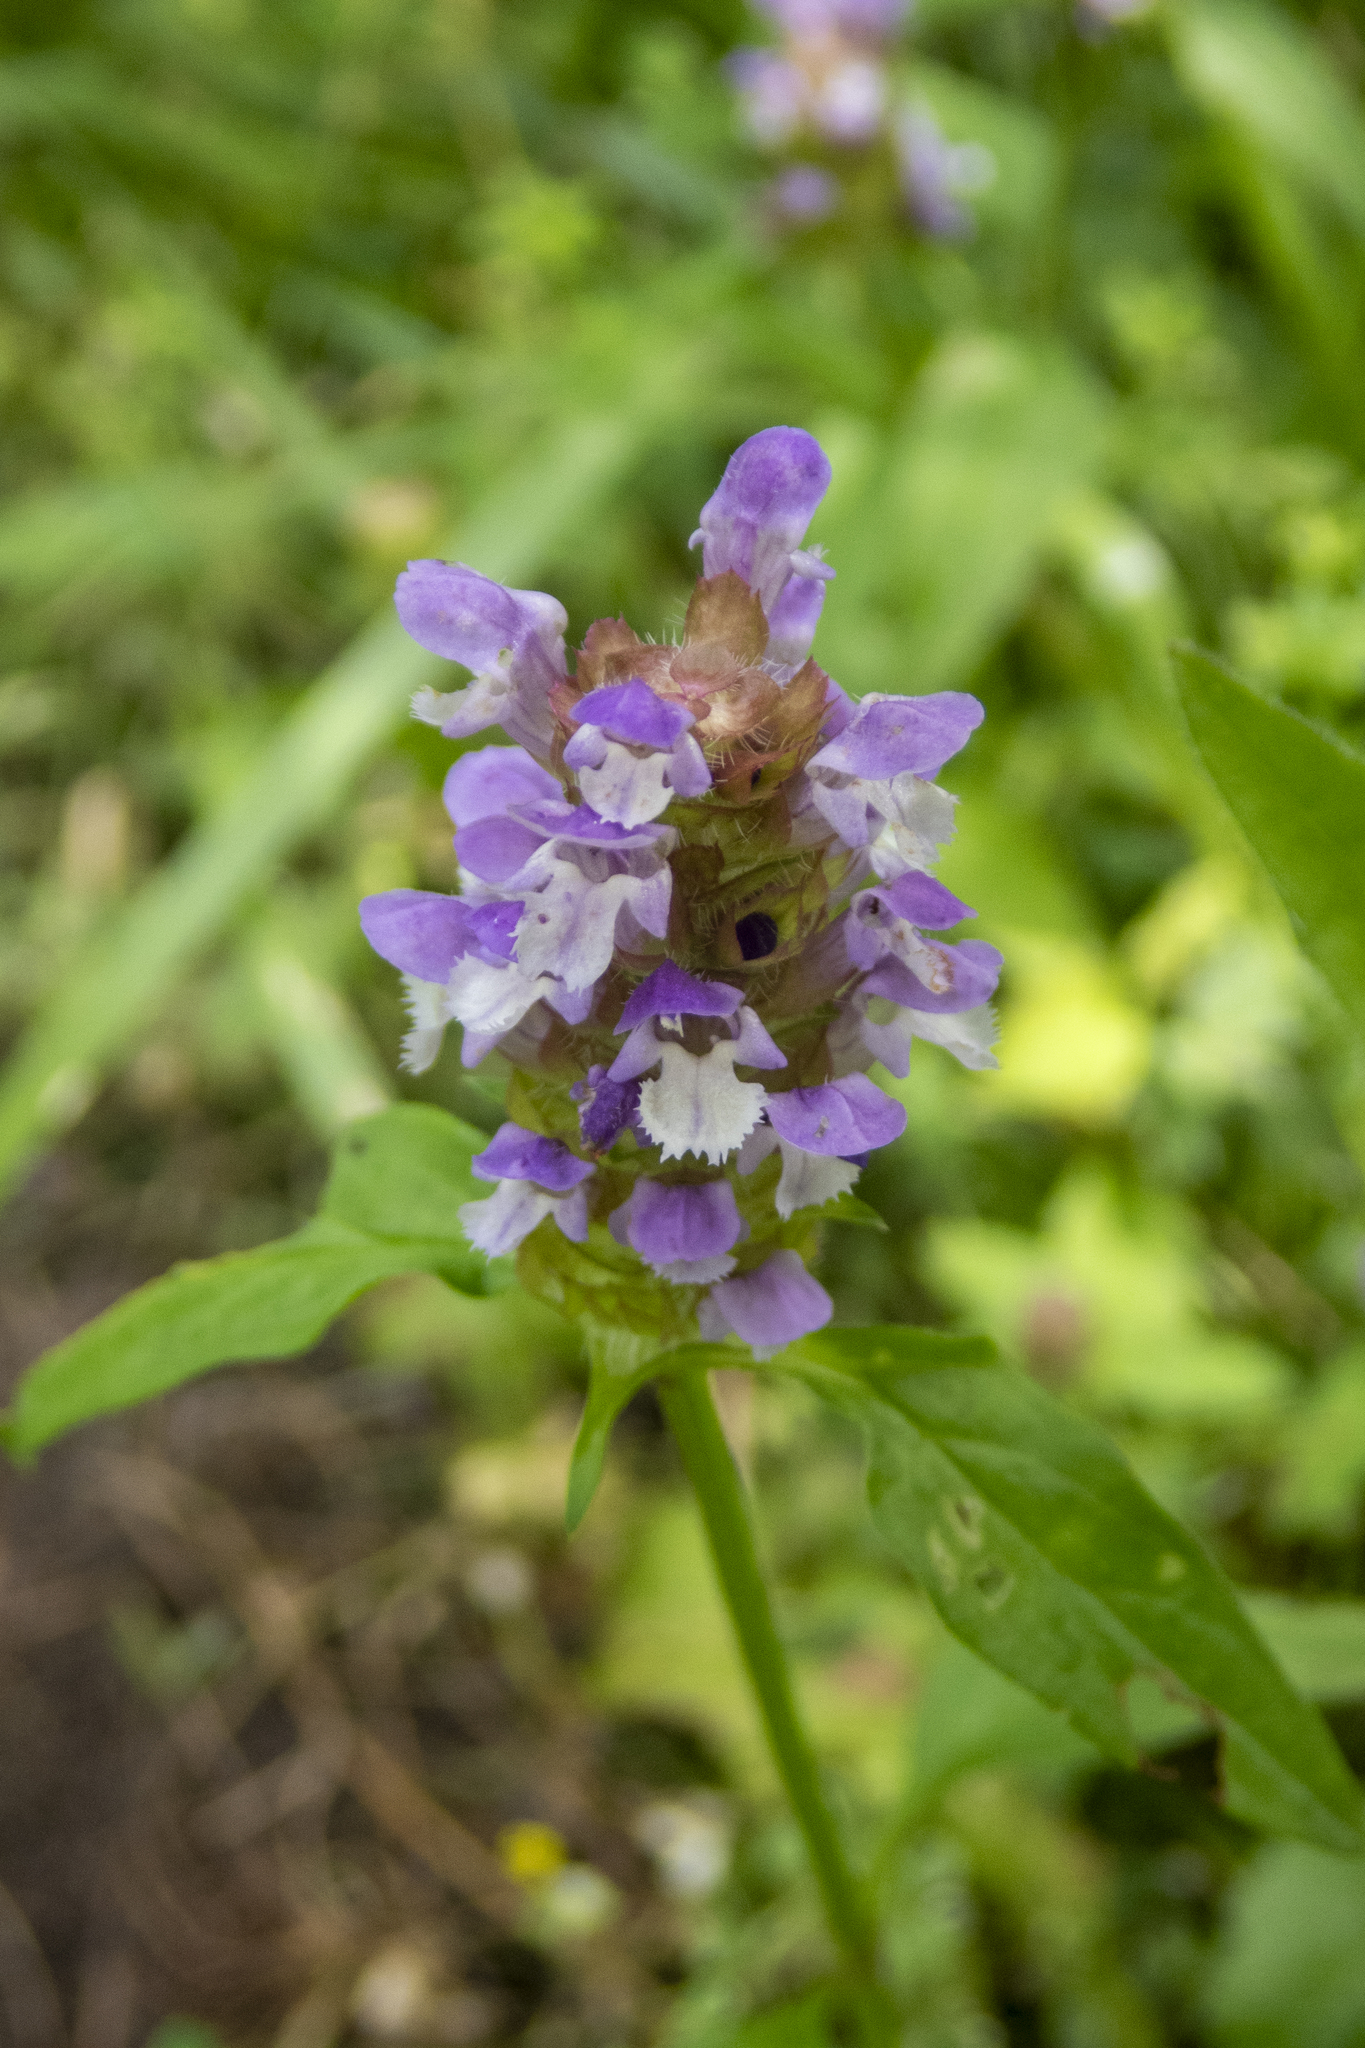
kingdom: Plantae
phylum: Tracheophyta
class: Magnoliopsida
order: Lamiales
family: Lamiaceae
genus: Prunella
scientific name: Prunella vulgaris
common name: Heal-all
